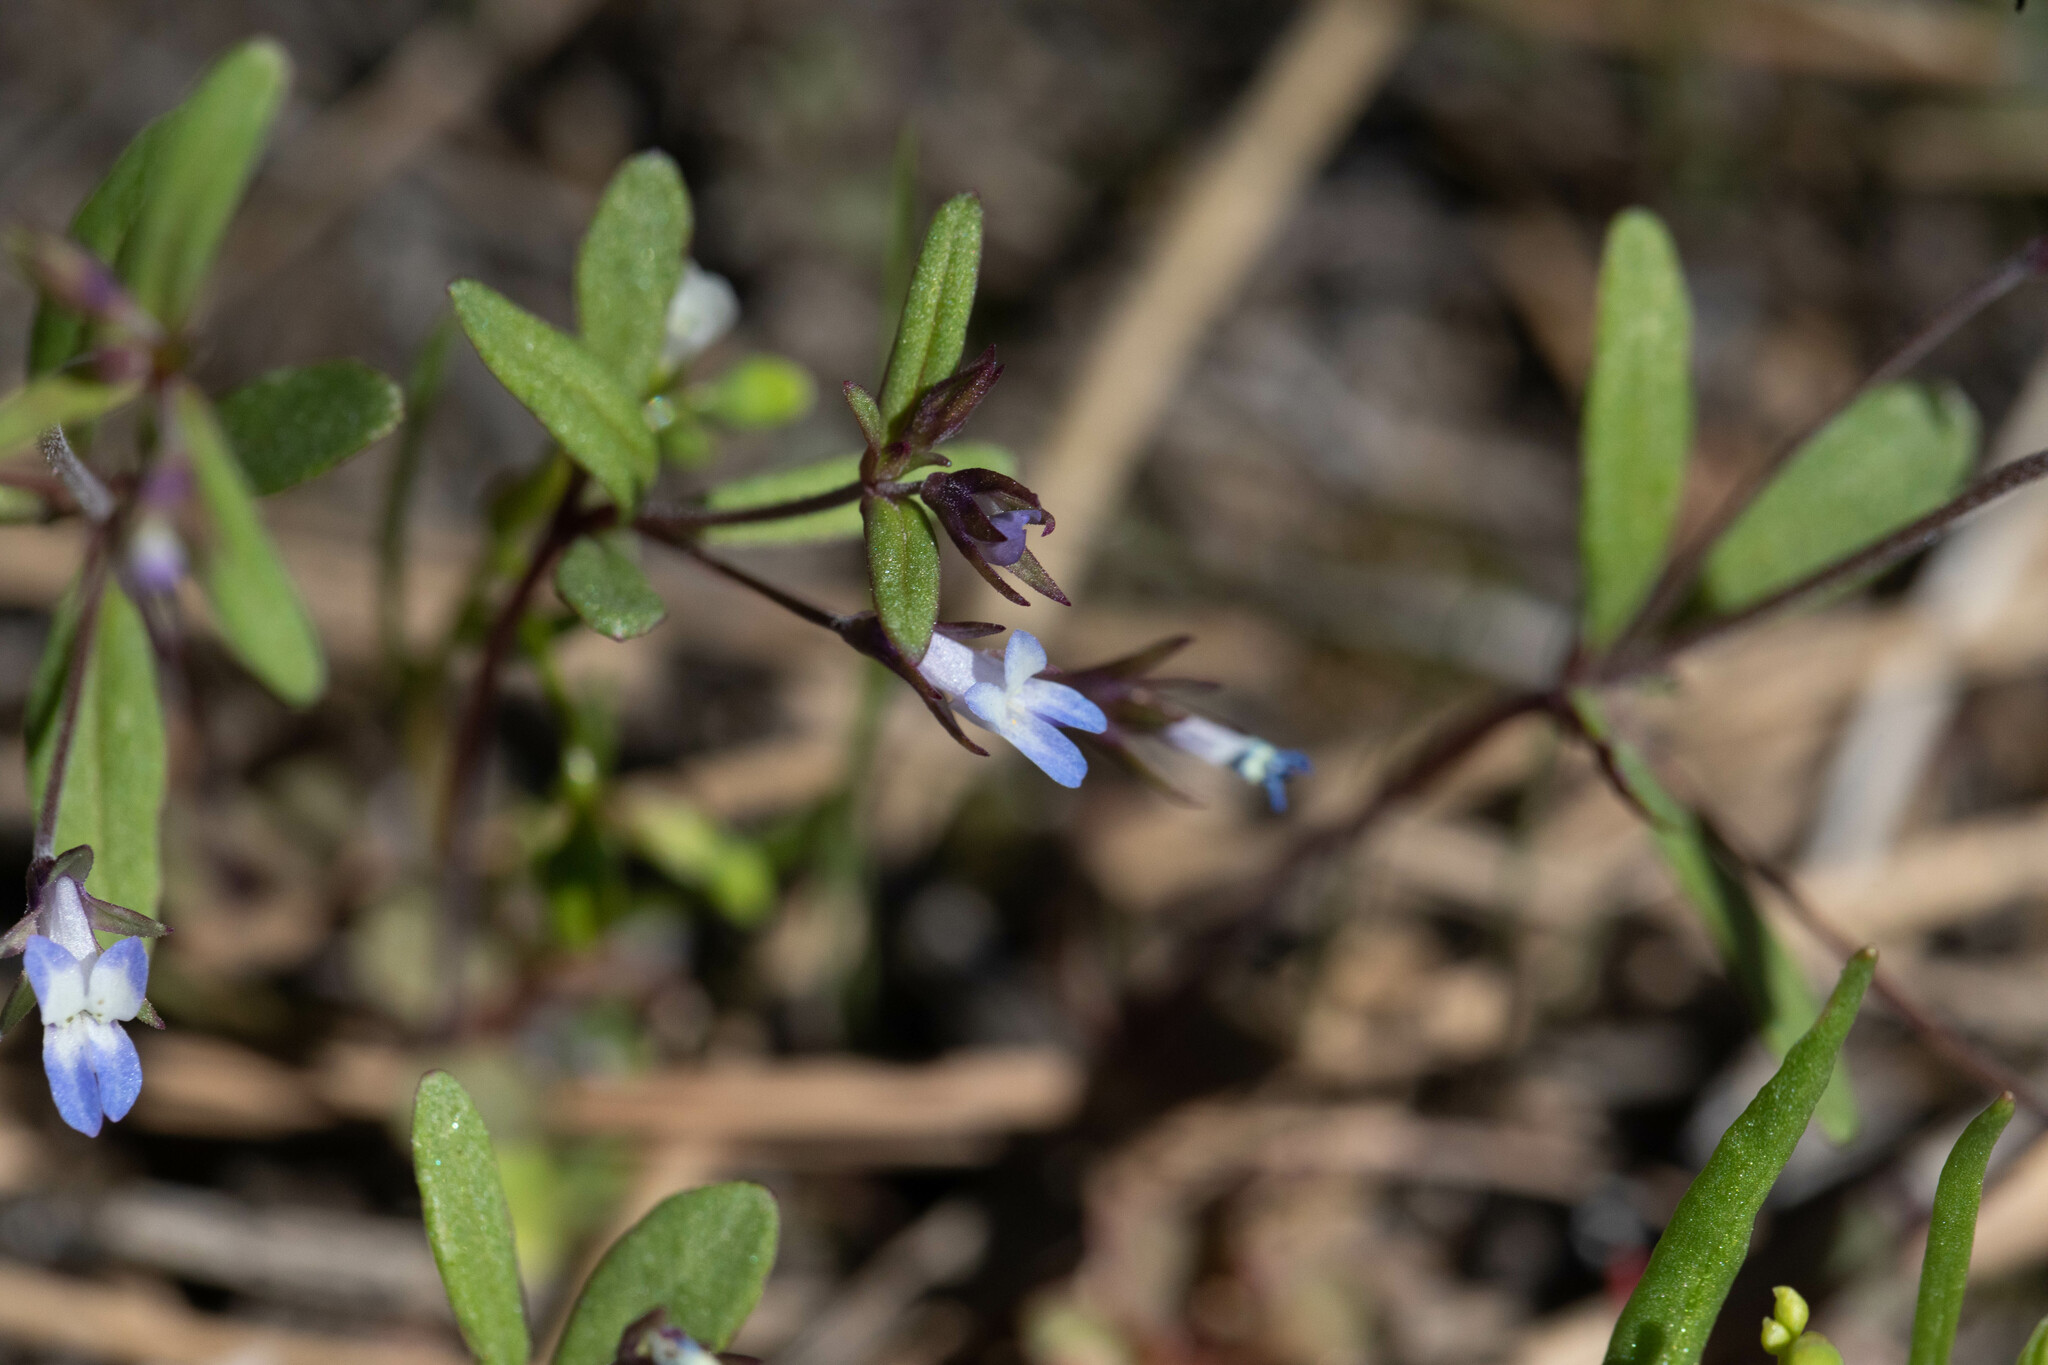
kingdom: Plantae
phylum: Tracheophyta
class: Magnoliopsida
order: Lamiales
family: Plantaginaceae
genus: Collinsia
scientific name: Collinsia parviflora
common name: Blue-lips
